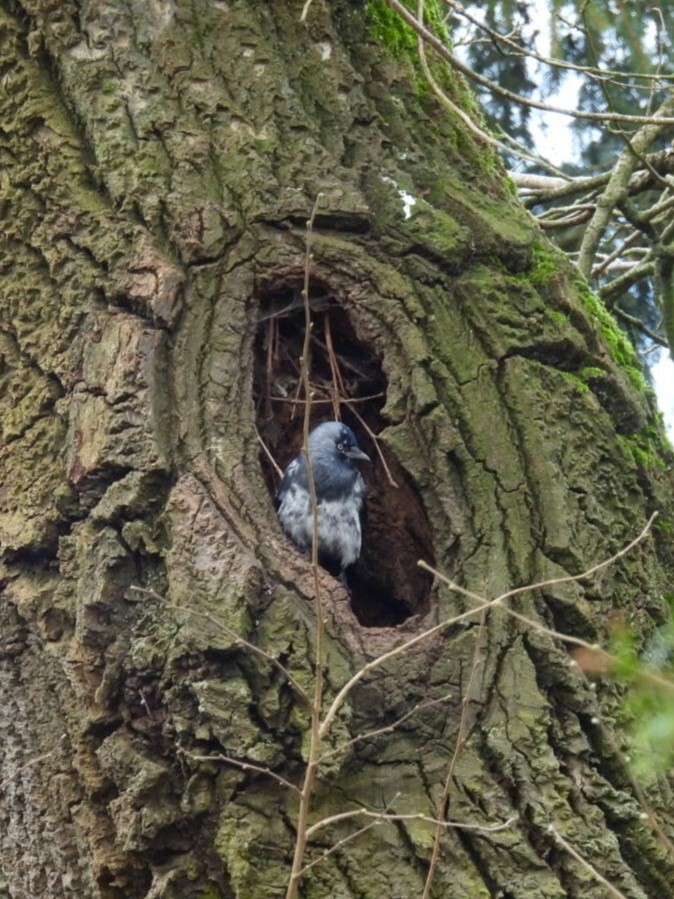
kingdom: Animalia
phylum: Chordata
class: Aves
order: Passeriformes
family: Corvidae
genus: Coloeus
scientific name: Coloeus monedula
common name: Western jackdaw
